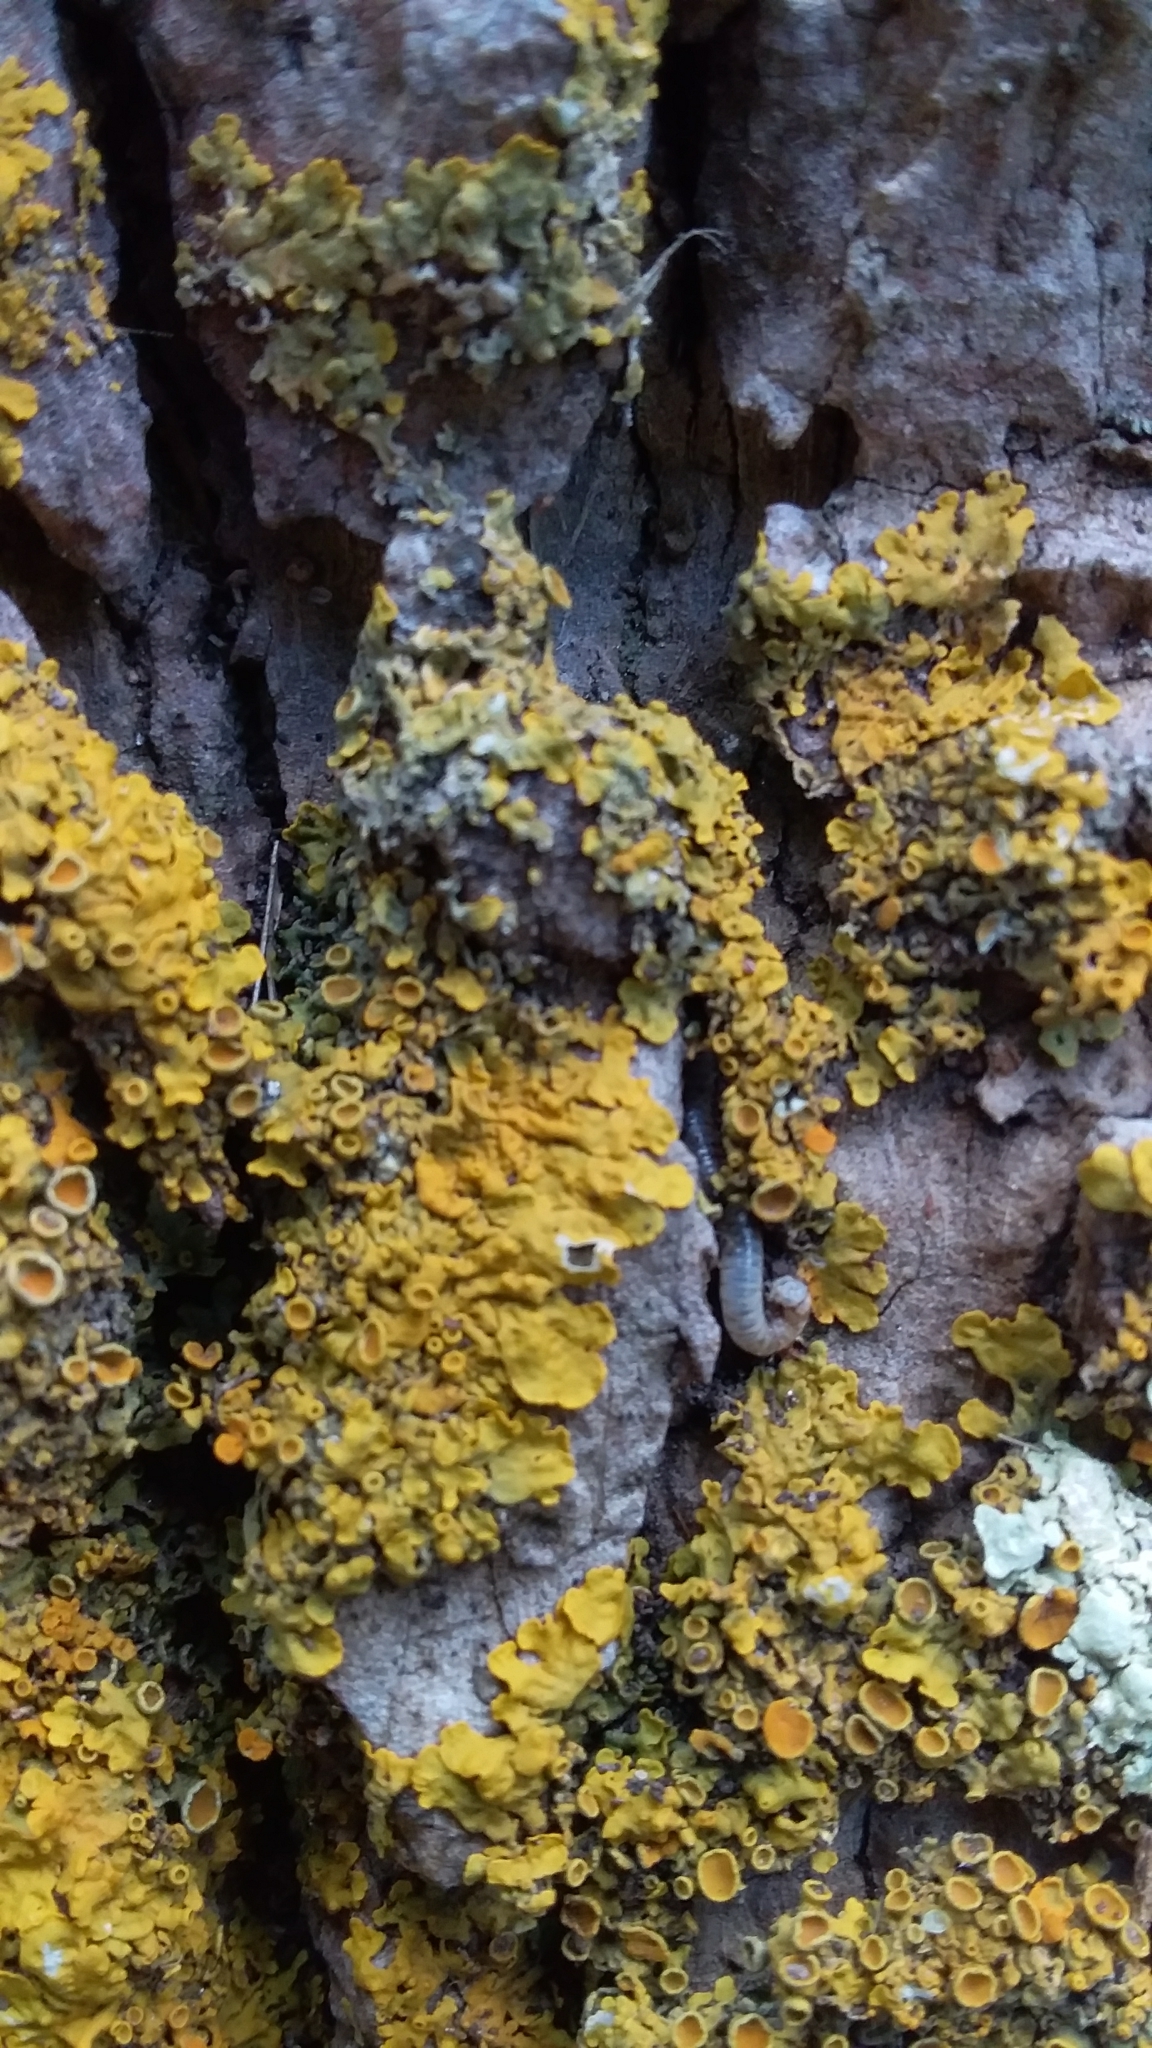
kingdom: Fungi
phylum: Ascomycota
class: Lecanoromycetes
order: Teloschistales
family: Teloschistaceae
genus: Xanthoria
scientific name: Xanthoria parietina
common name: Common orange lichen
